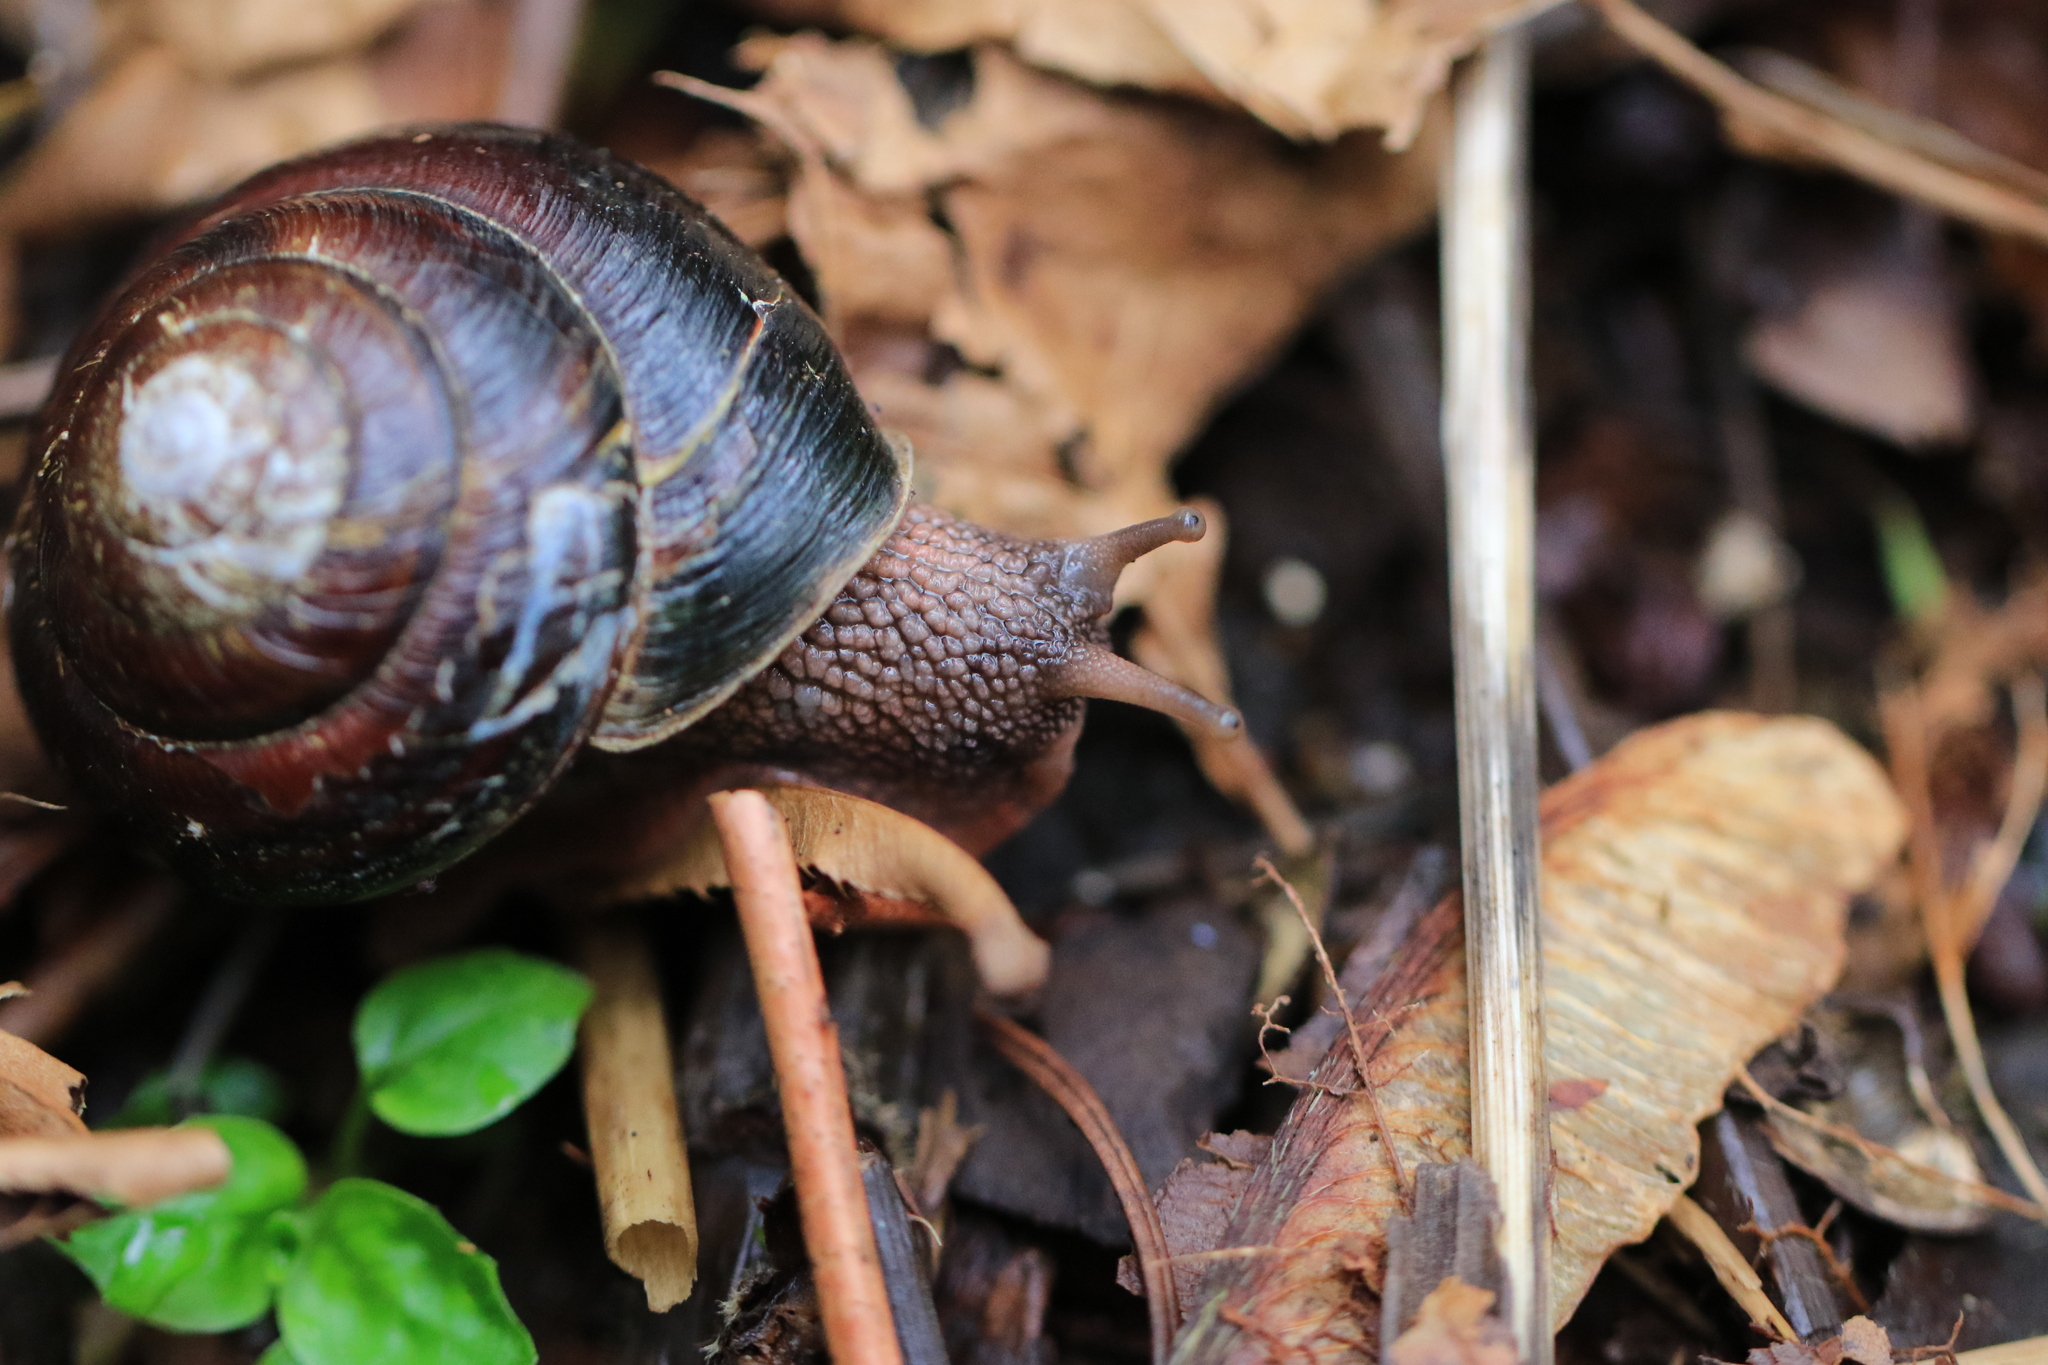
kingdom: Animalia
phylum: Mollusca
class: Gastropoda
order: Stylommatophora
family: Xanthonychidae
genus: Monadenia
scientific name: Monadenia fidelis
